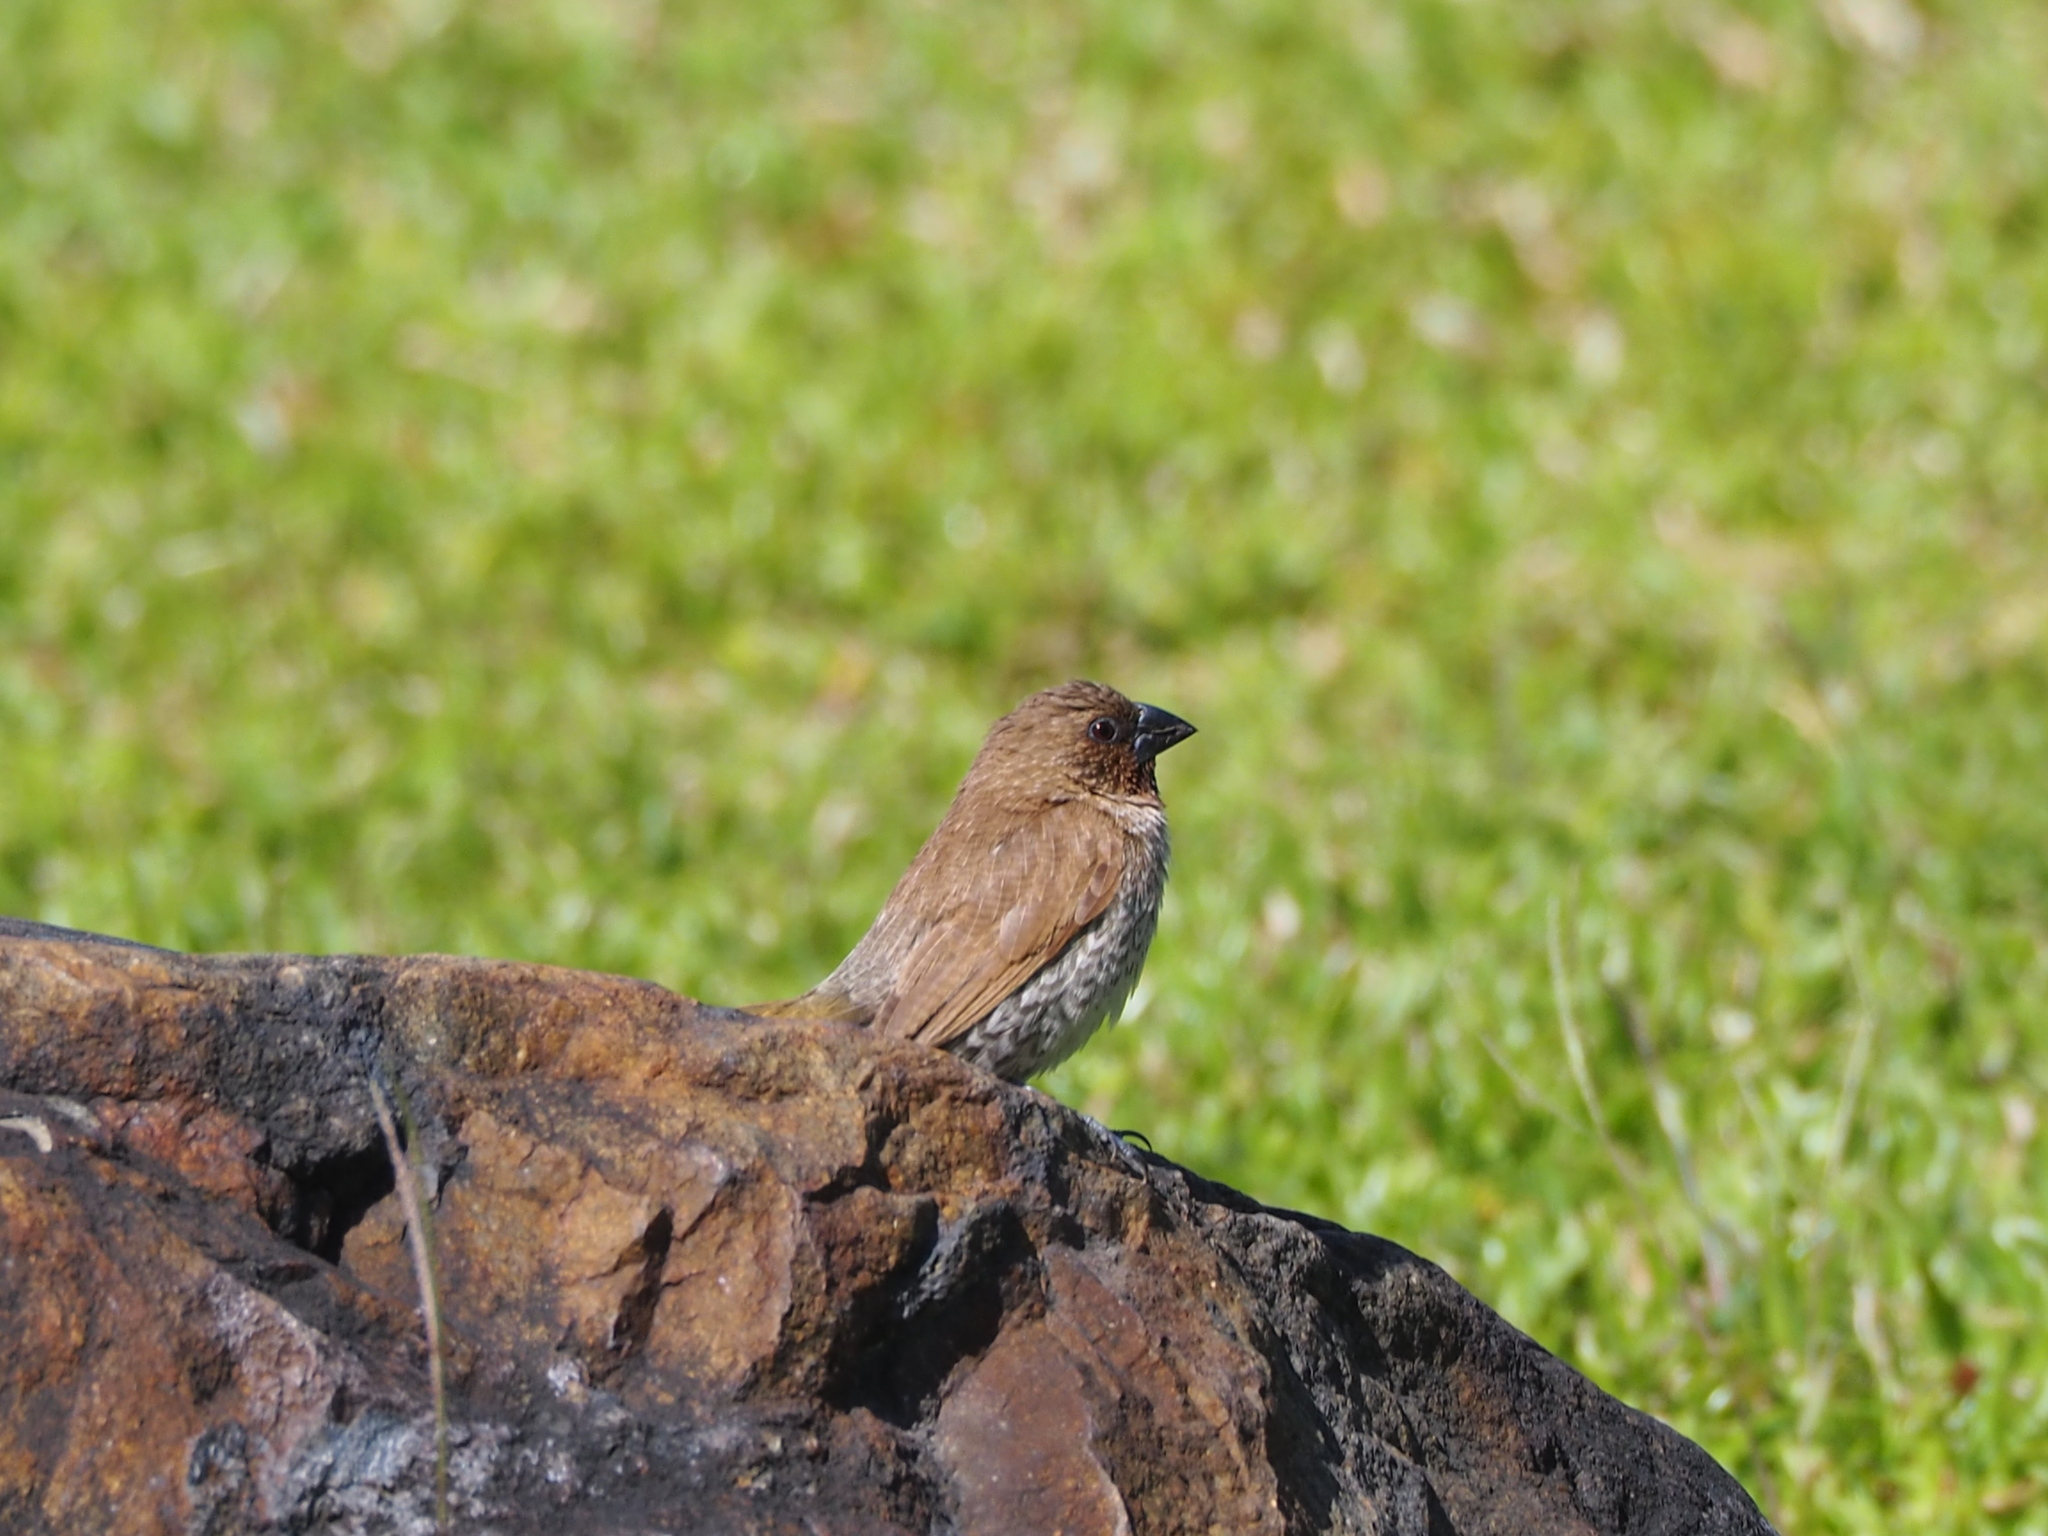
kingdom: Animalia
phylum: Chordata
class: Aves
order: Passeriformes
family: Estrildidae
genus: Lonchura
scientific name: Lonchura punctulata
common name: Scaly-breasted munia
